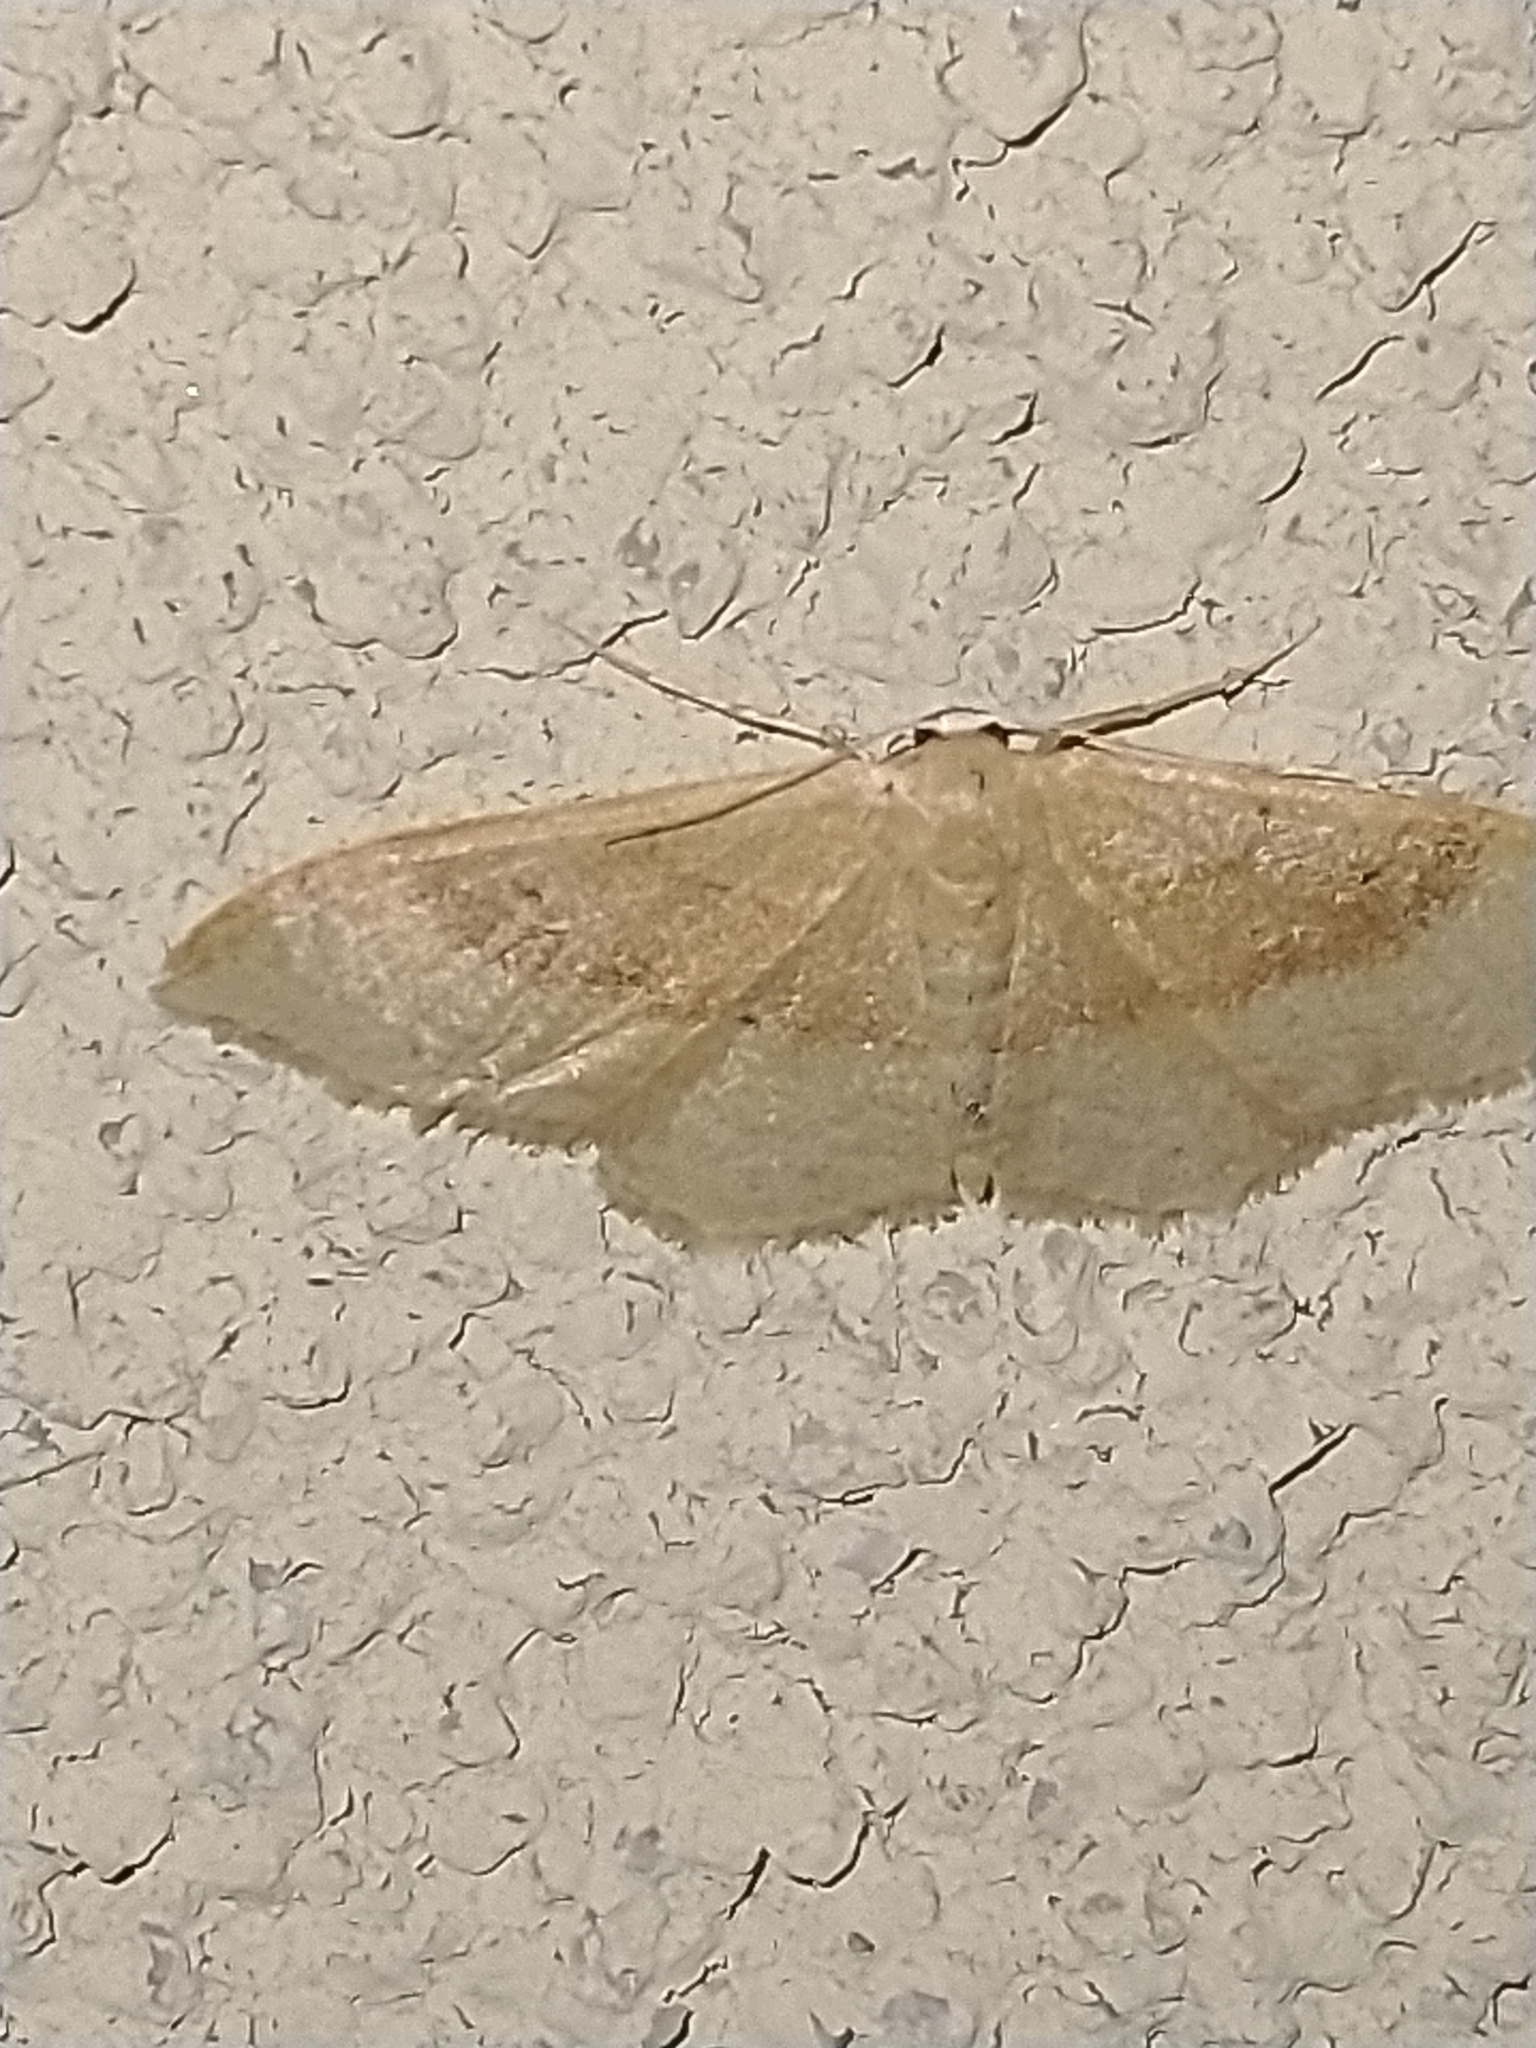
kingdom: Animalia
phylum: Arthropoda
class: Insecta
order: Lepidoptera
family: Geometridae
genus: Idaea
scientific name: Idaea degeneraria
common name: Portland ribbon wave
